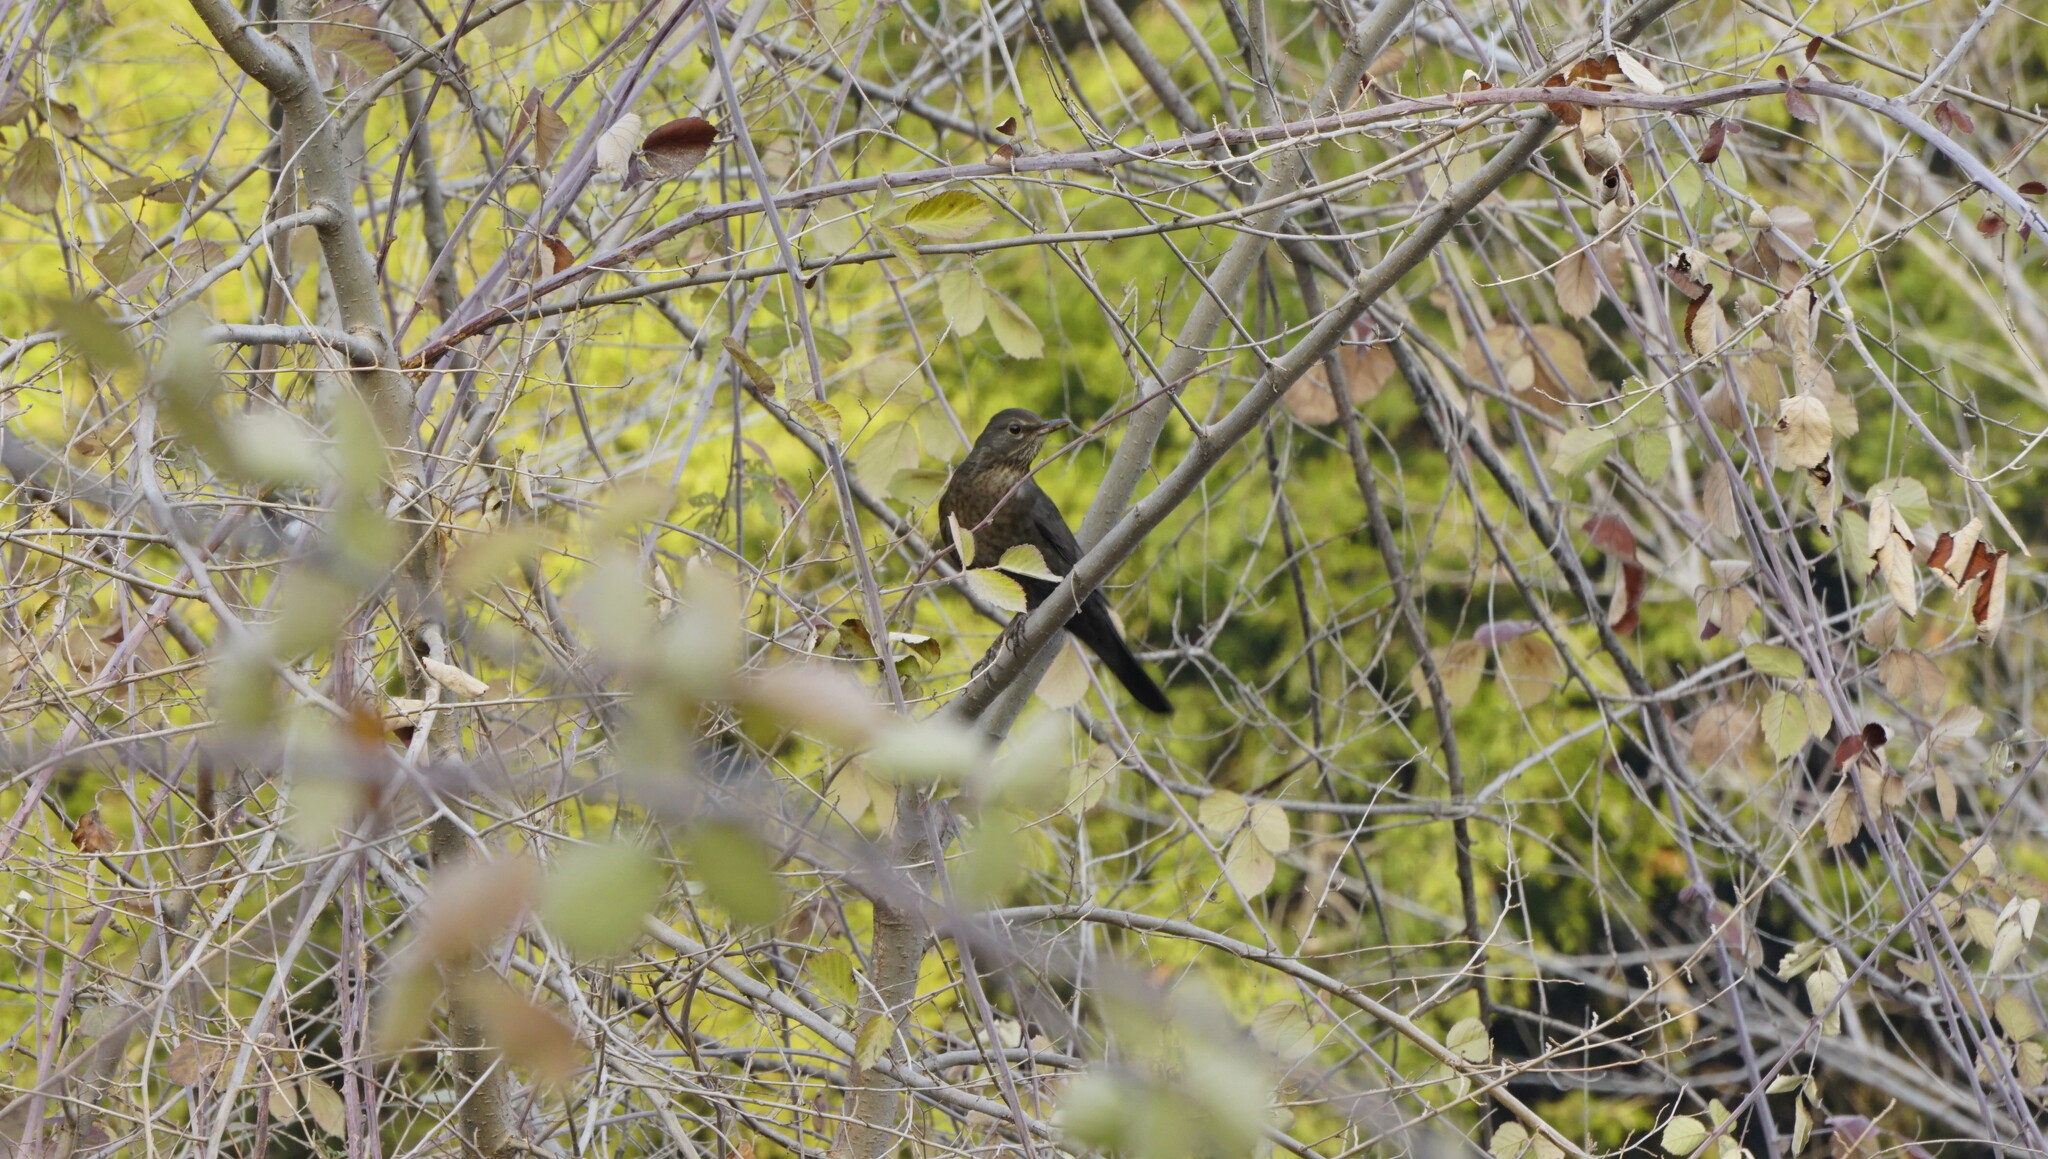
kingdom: Animalia
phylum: Chordata
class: Aves
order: Passeriformes
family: Turdidae
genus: Turdus
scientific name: Turdus merula
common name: Common blackbird
